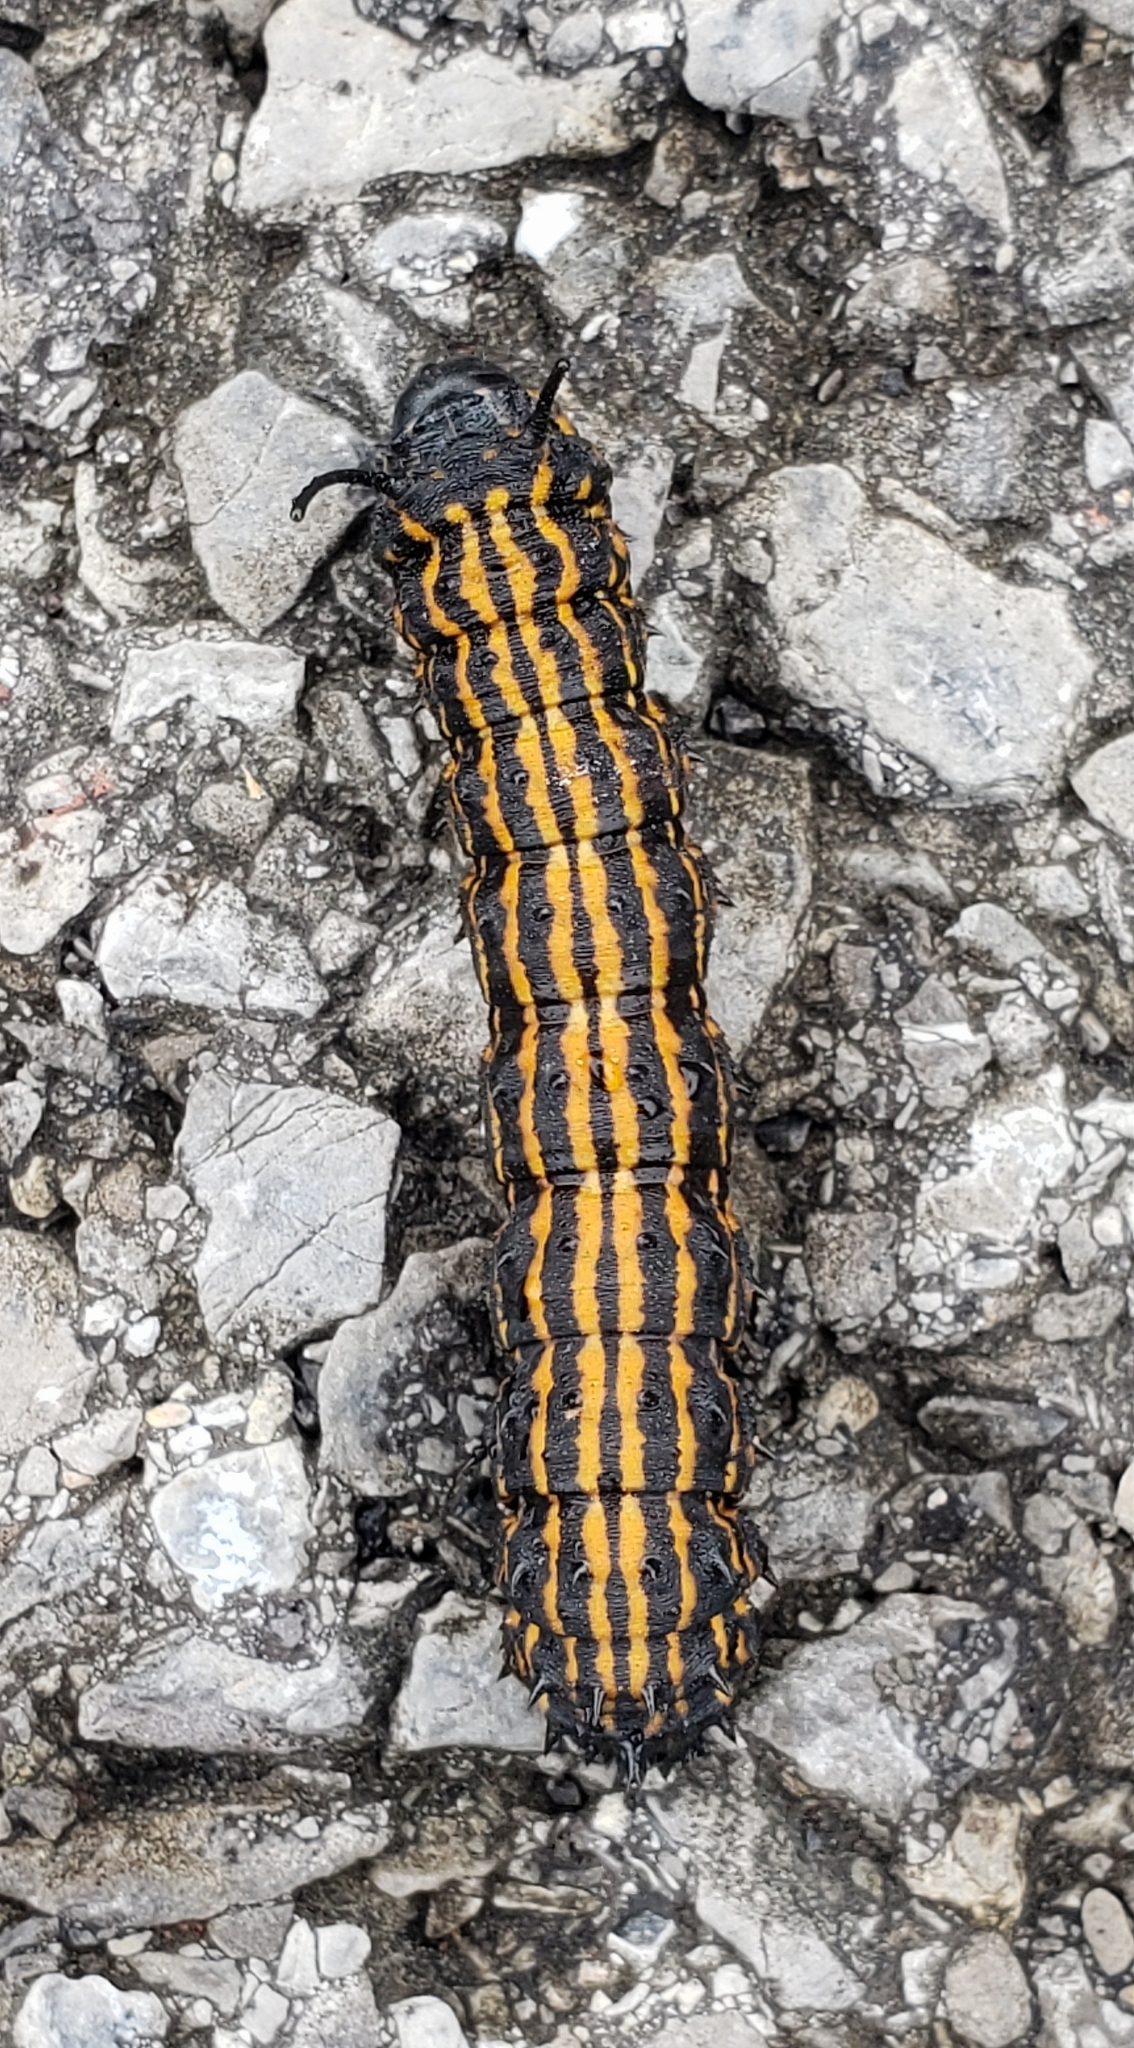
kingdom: Animalia
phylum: Arthropoda
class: Insecta
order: Lepidoptera
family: Saturniidae
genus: Anisota
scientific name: Anisota senatoria
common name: Orange-striped oakworm moth
